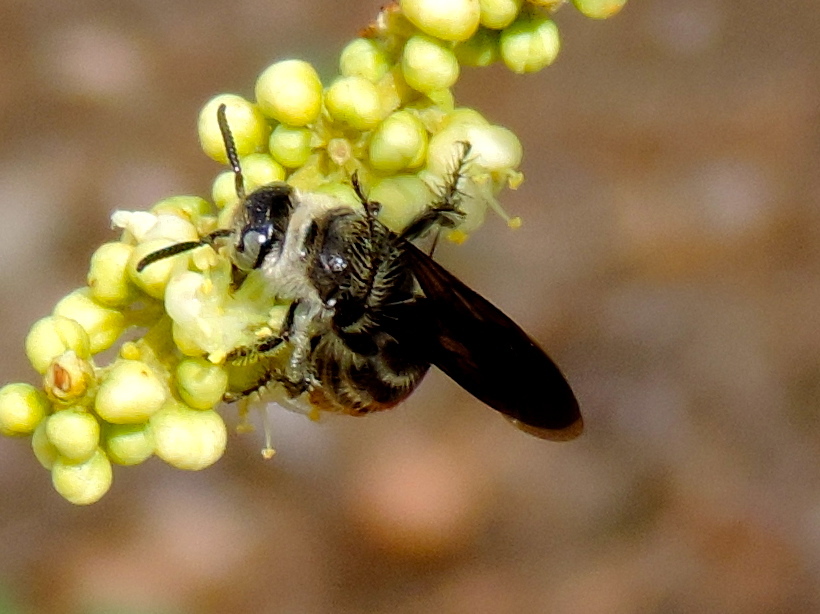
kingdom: Animalia
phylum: Arthropoda
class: Insecta
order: Hymenoptera
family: Scoliidae
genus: Dielis
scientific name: Dielis tolteca
